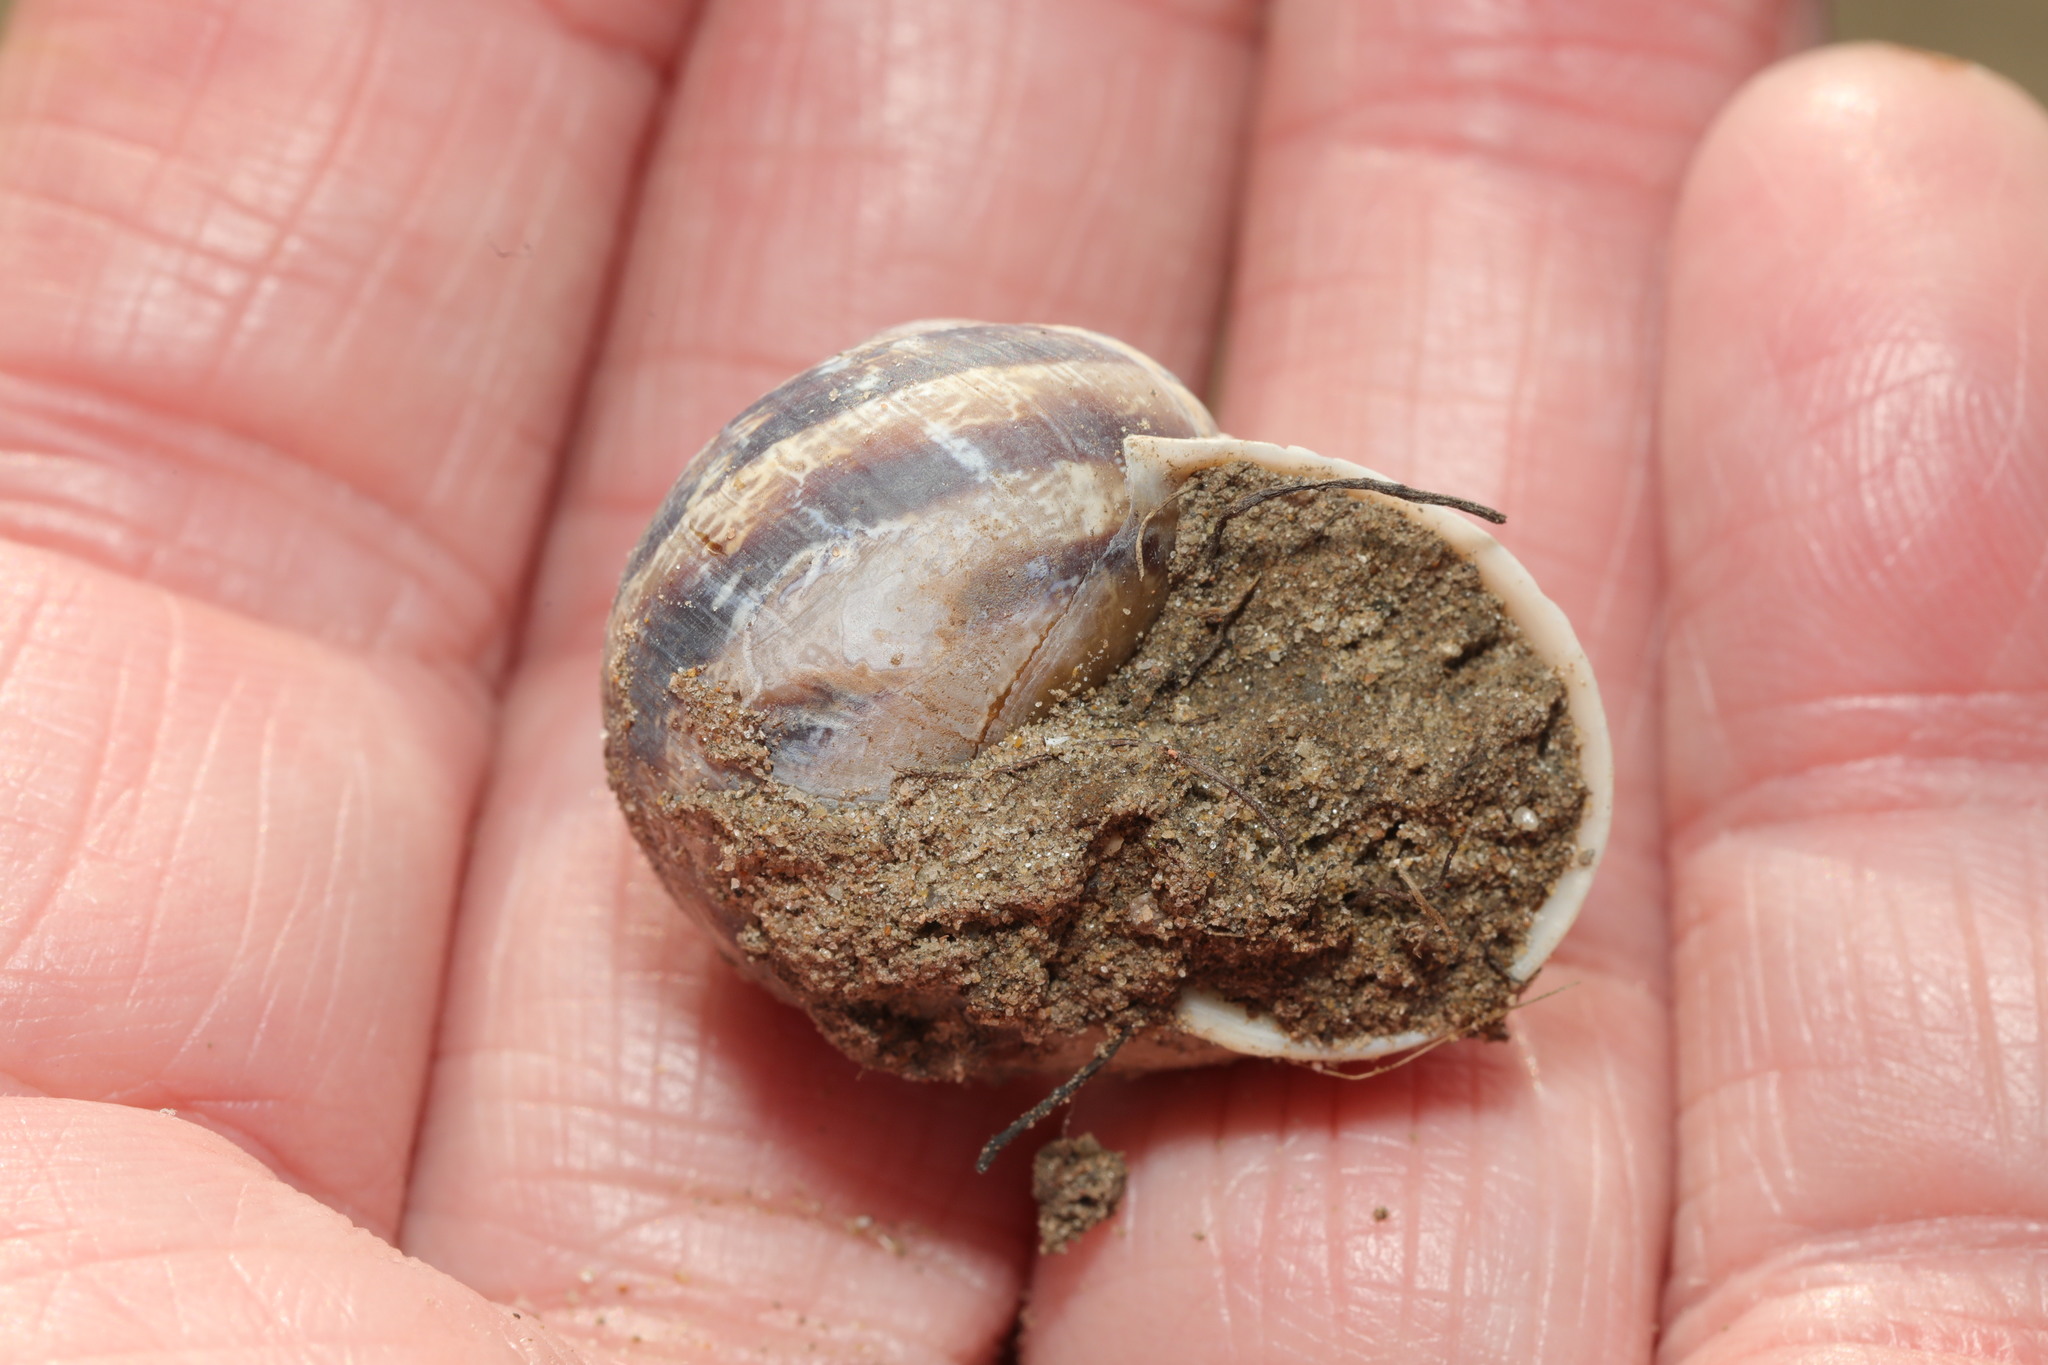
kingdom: Animalia
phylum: Mollusca
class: Gastropoda
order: Stylommatophora
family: Helicidae
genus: Cornu
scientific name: Cornu aspersum
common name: Brown garden snail
